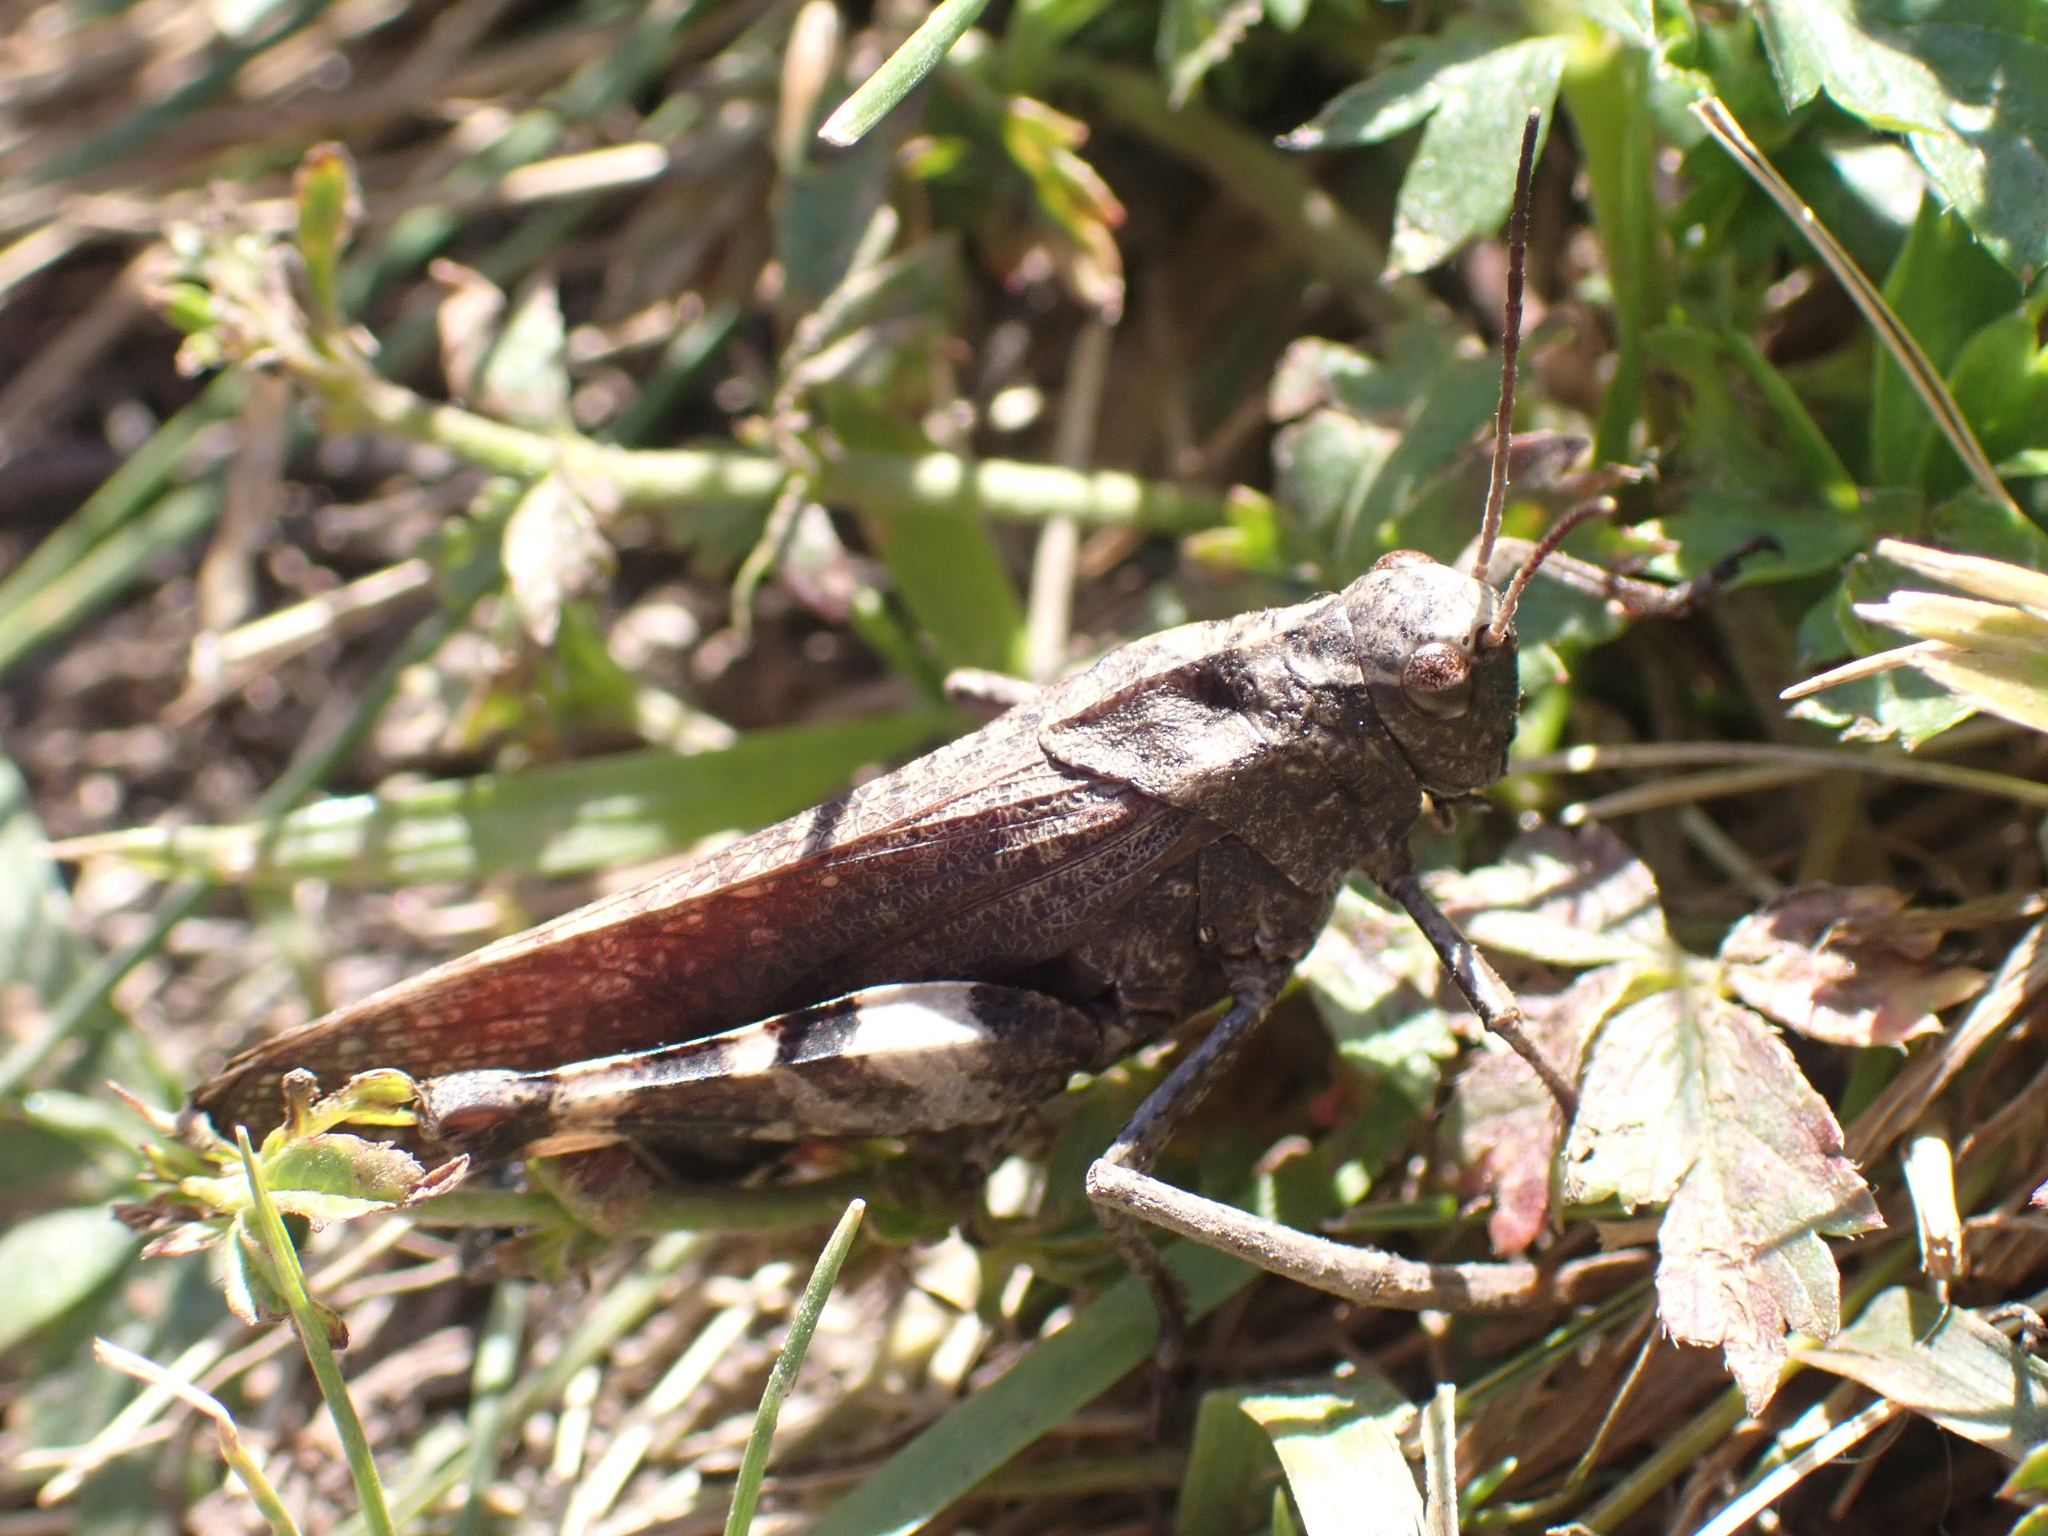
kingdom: Animalia
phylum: Arthropoda
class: Insecta
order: Orthoptera
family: Acrididae
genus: Psophus
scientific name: Psophus stridulus
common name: Rattle grasshopper
